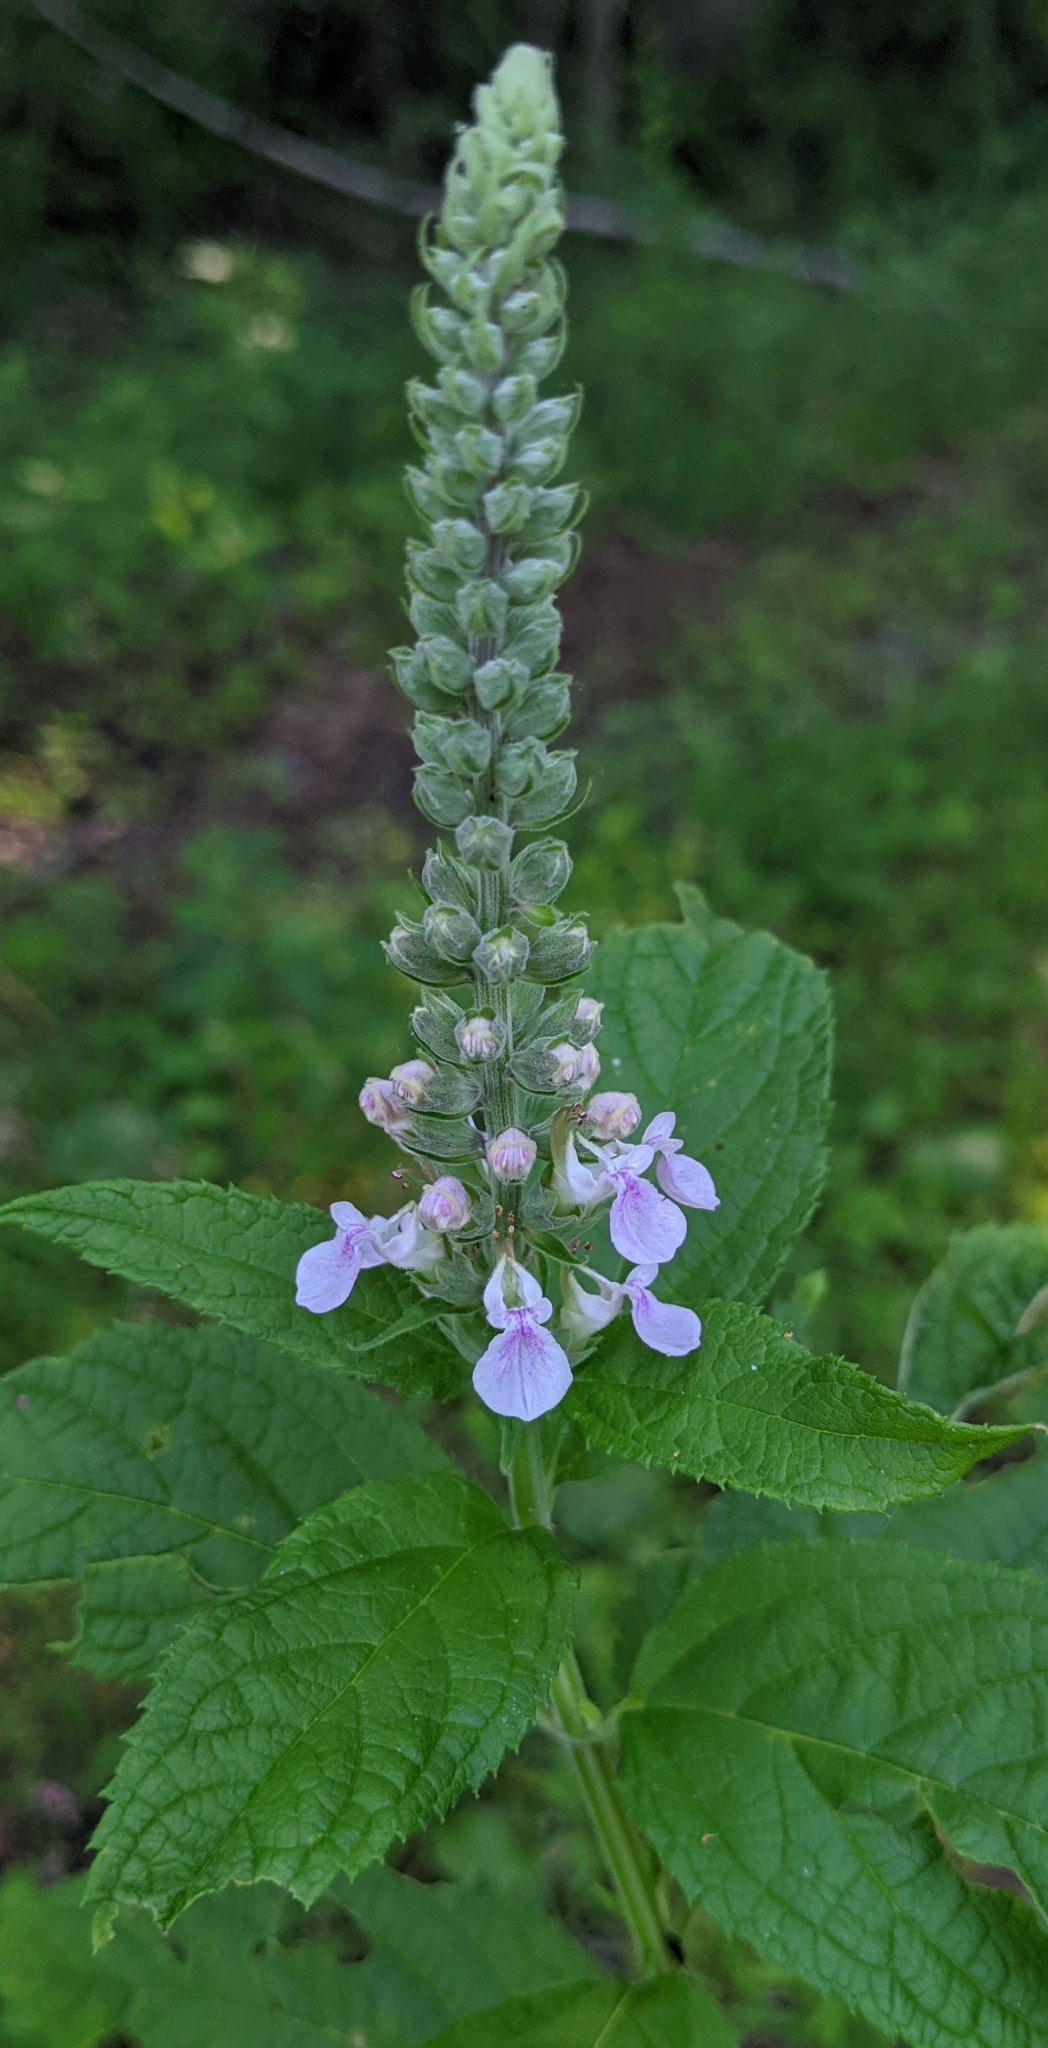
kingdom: Plantae
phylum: Tracheophyta
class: Magnoliopsida
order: Lamiales
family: Lamiaceae
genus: Teucrium
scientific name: Teucrium canadense
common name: American germander
